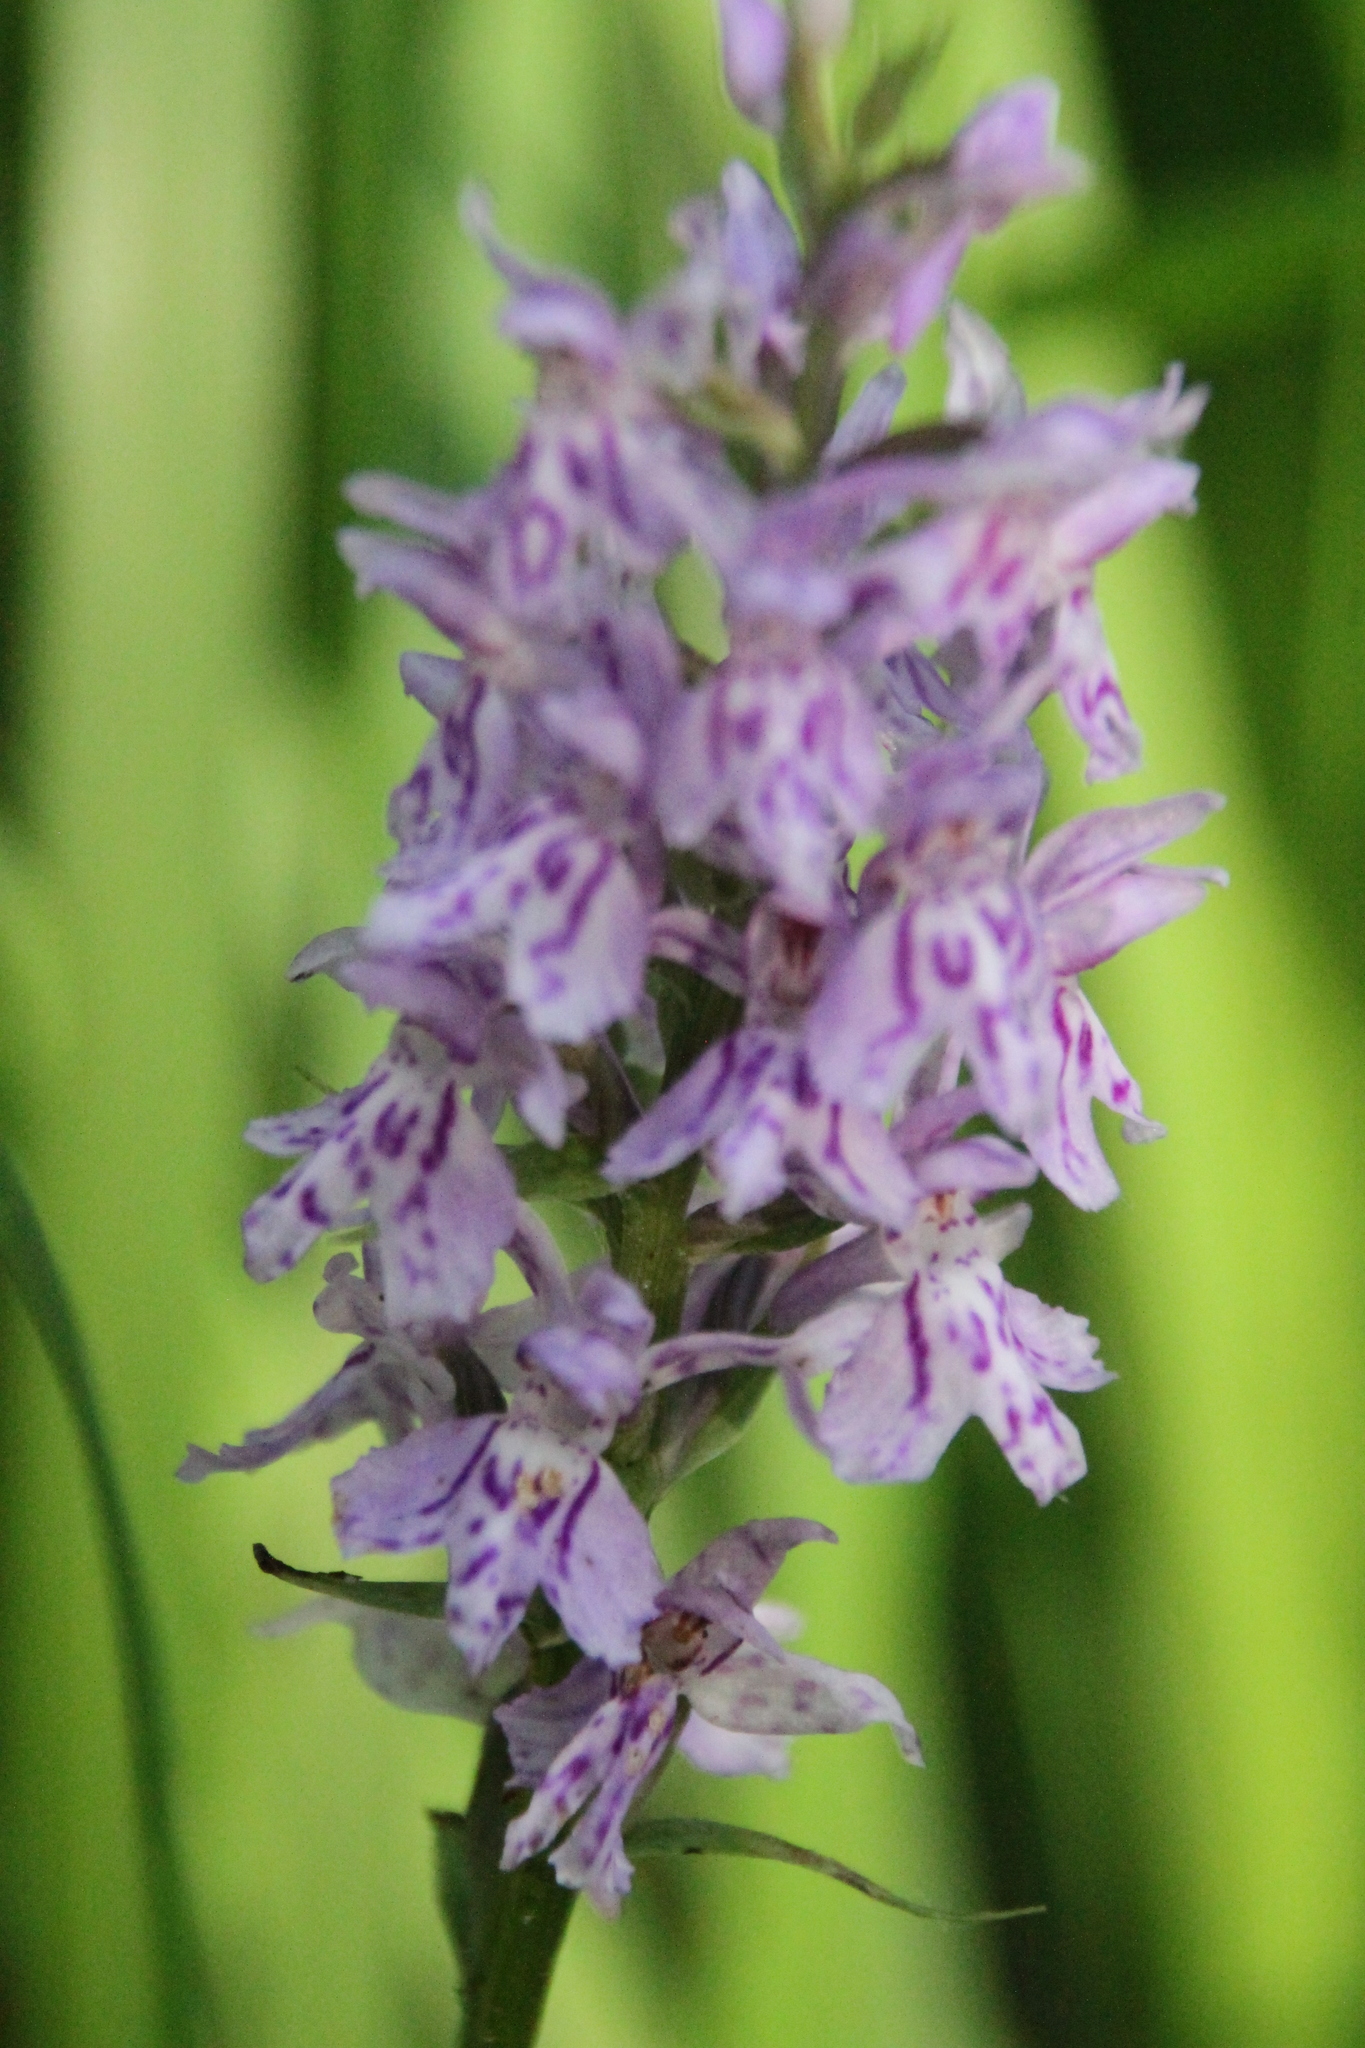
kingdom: Plantae
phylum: Tracheophyta
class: Liliopsida
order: Asparagales
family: Orchidaceae
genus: Dactylorhiza
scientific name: Dactylorhiza maculata
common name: Heath spotted-orchid
